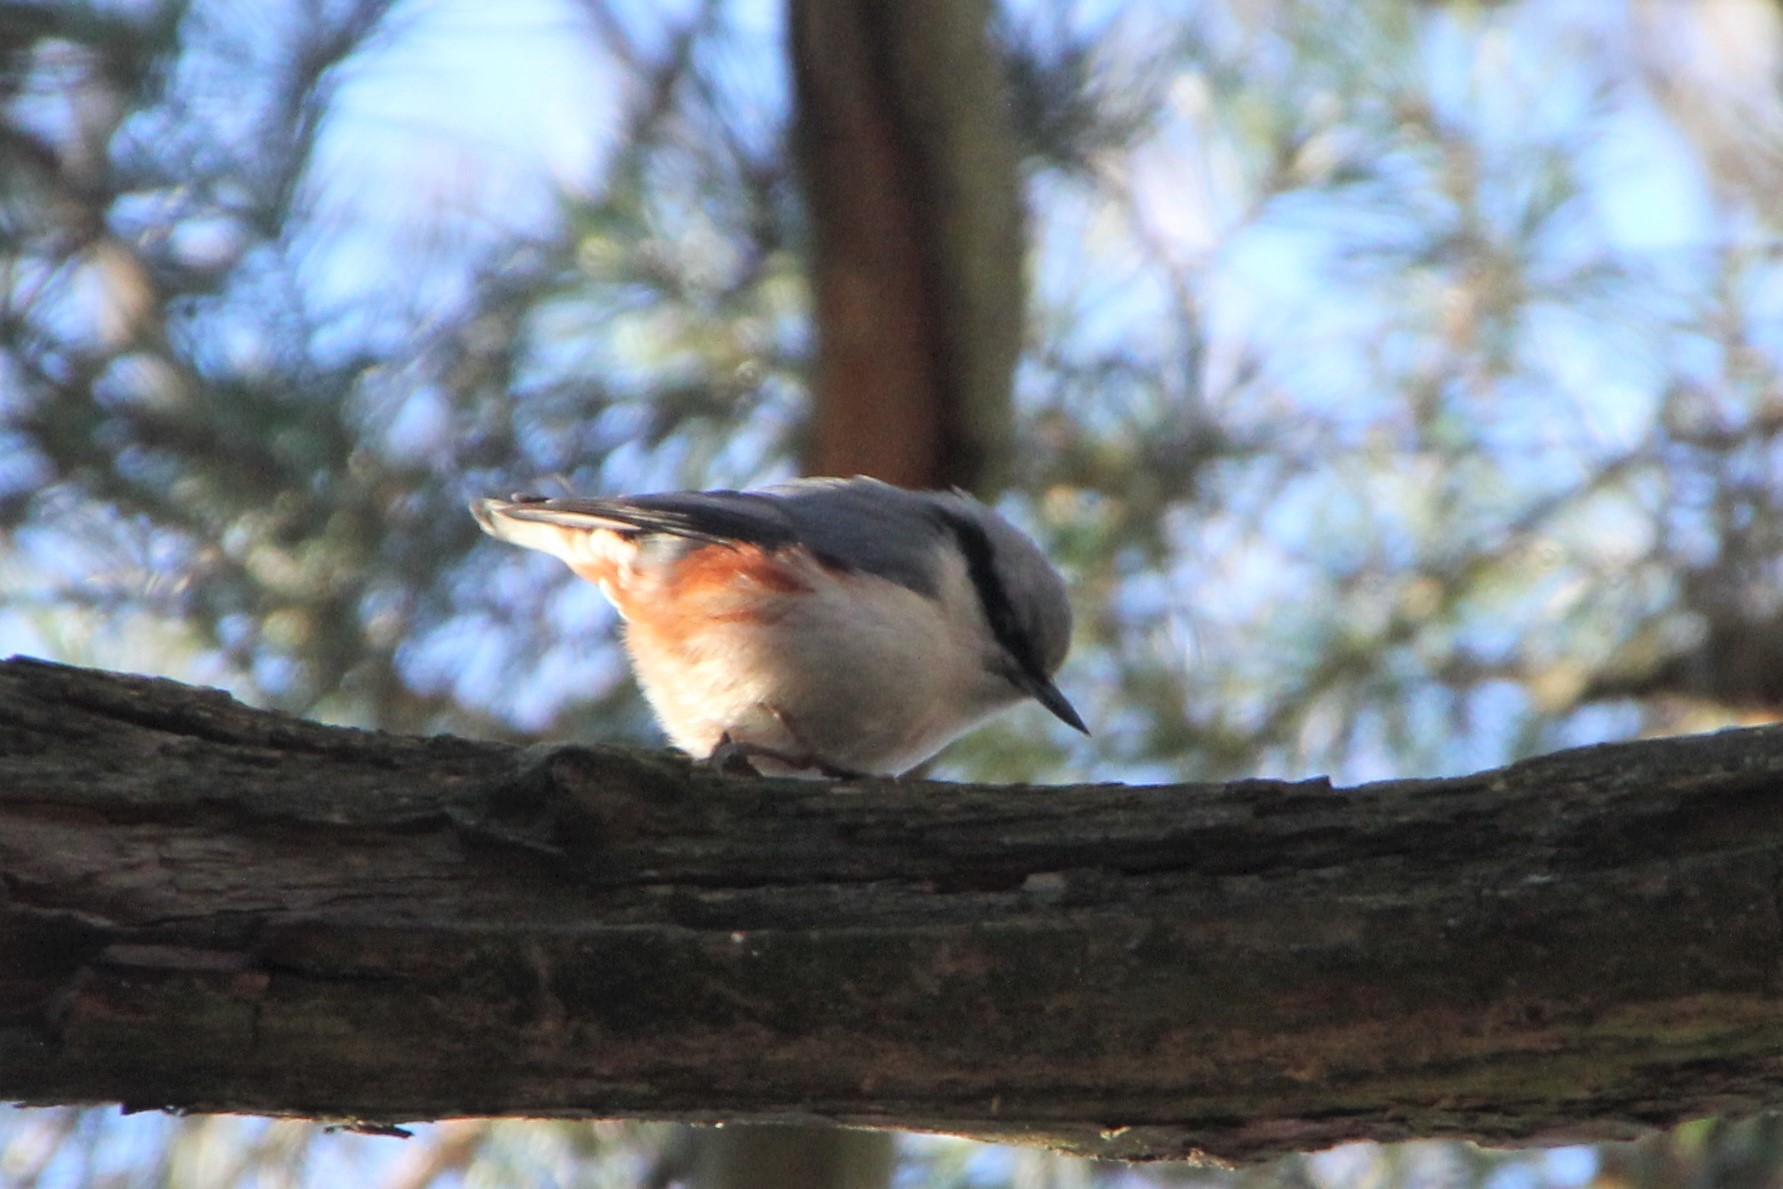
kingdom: Animalia
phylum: Chordata
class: Aves
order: Passeriformes
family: Sittidae
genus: Sitta
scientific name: Sitta europaea
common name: Eurasian nuthatch
